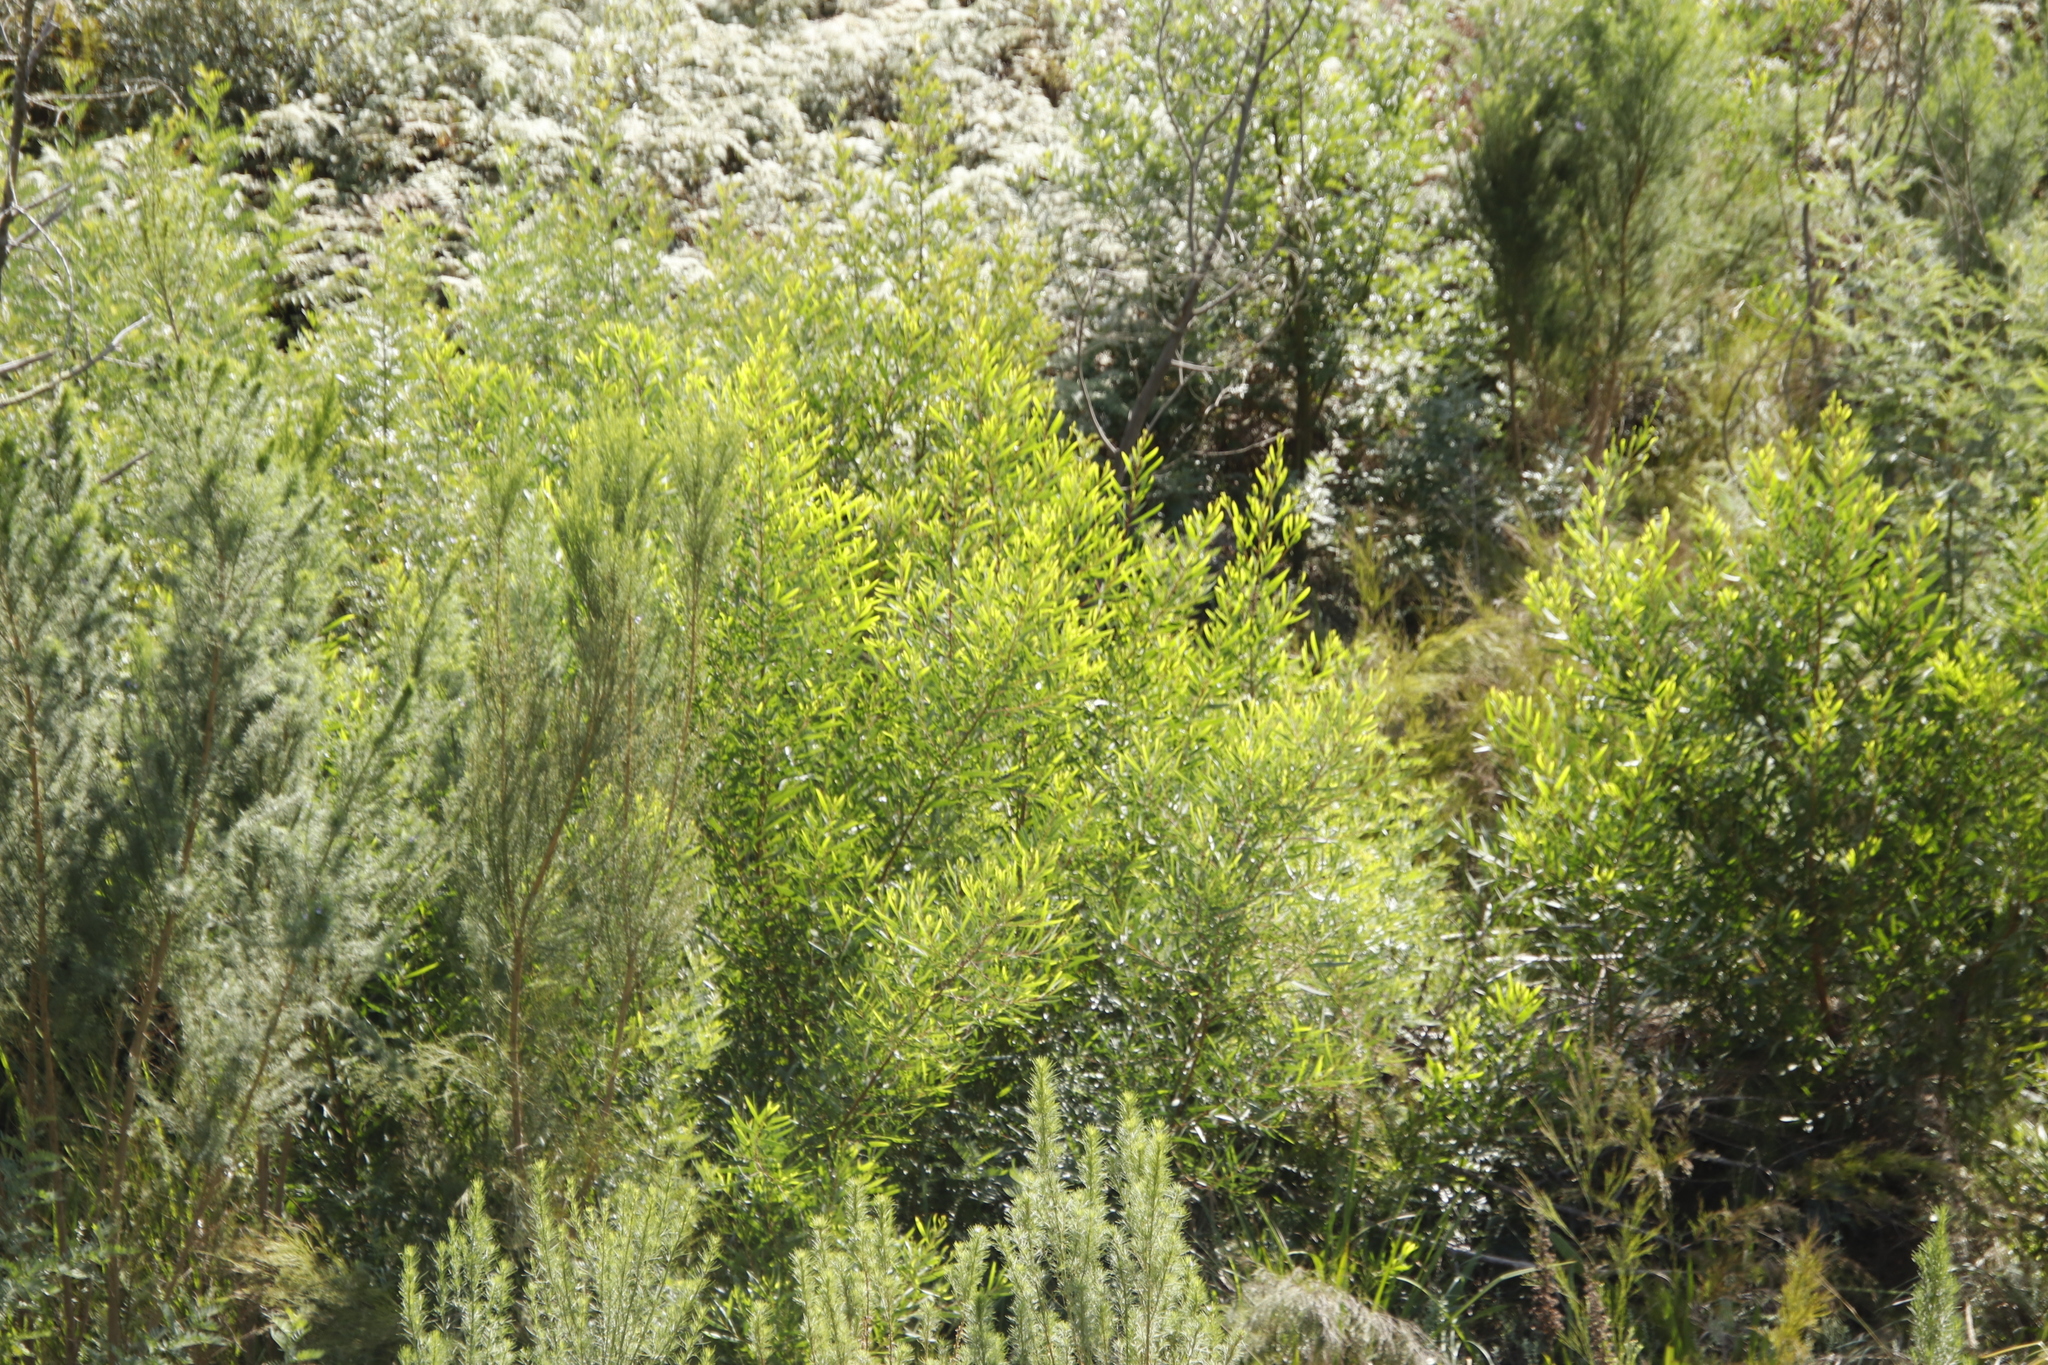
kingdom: Plantae
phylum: Tracheophyta
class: Magnoliopsida
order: Fabales
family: Fabaceae
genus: Acacia
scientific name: Acacia longifolia
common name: Sydney golden wattle
